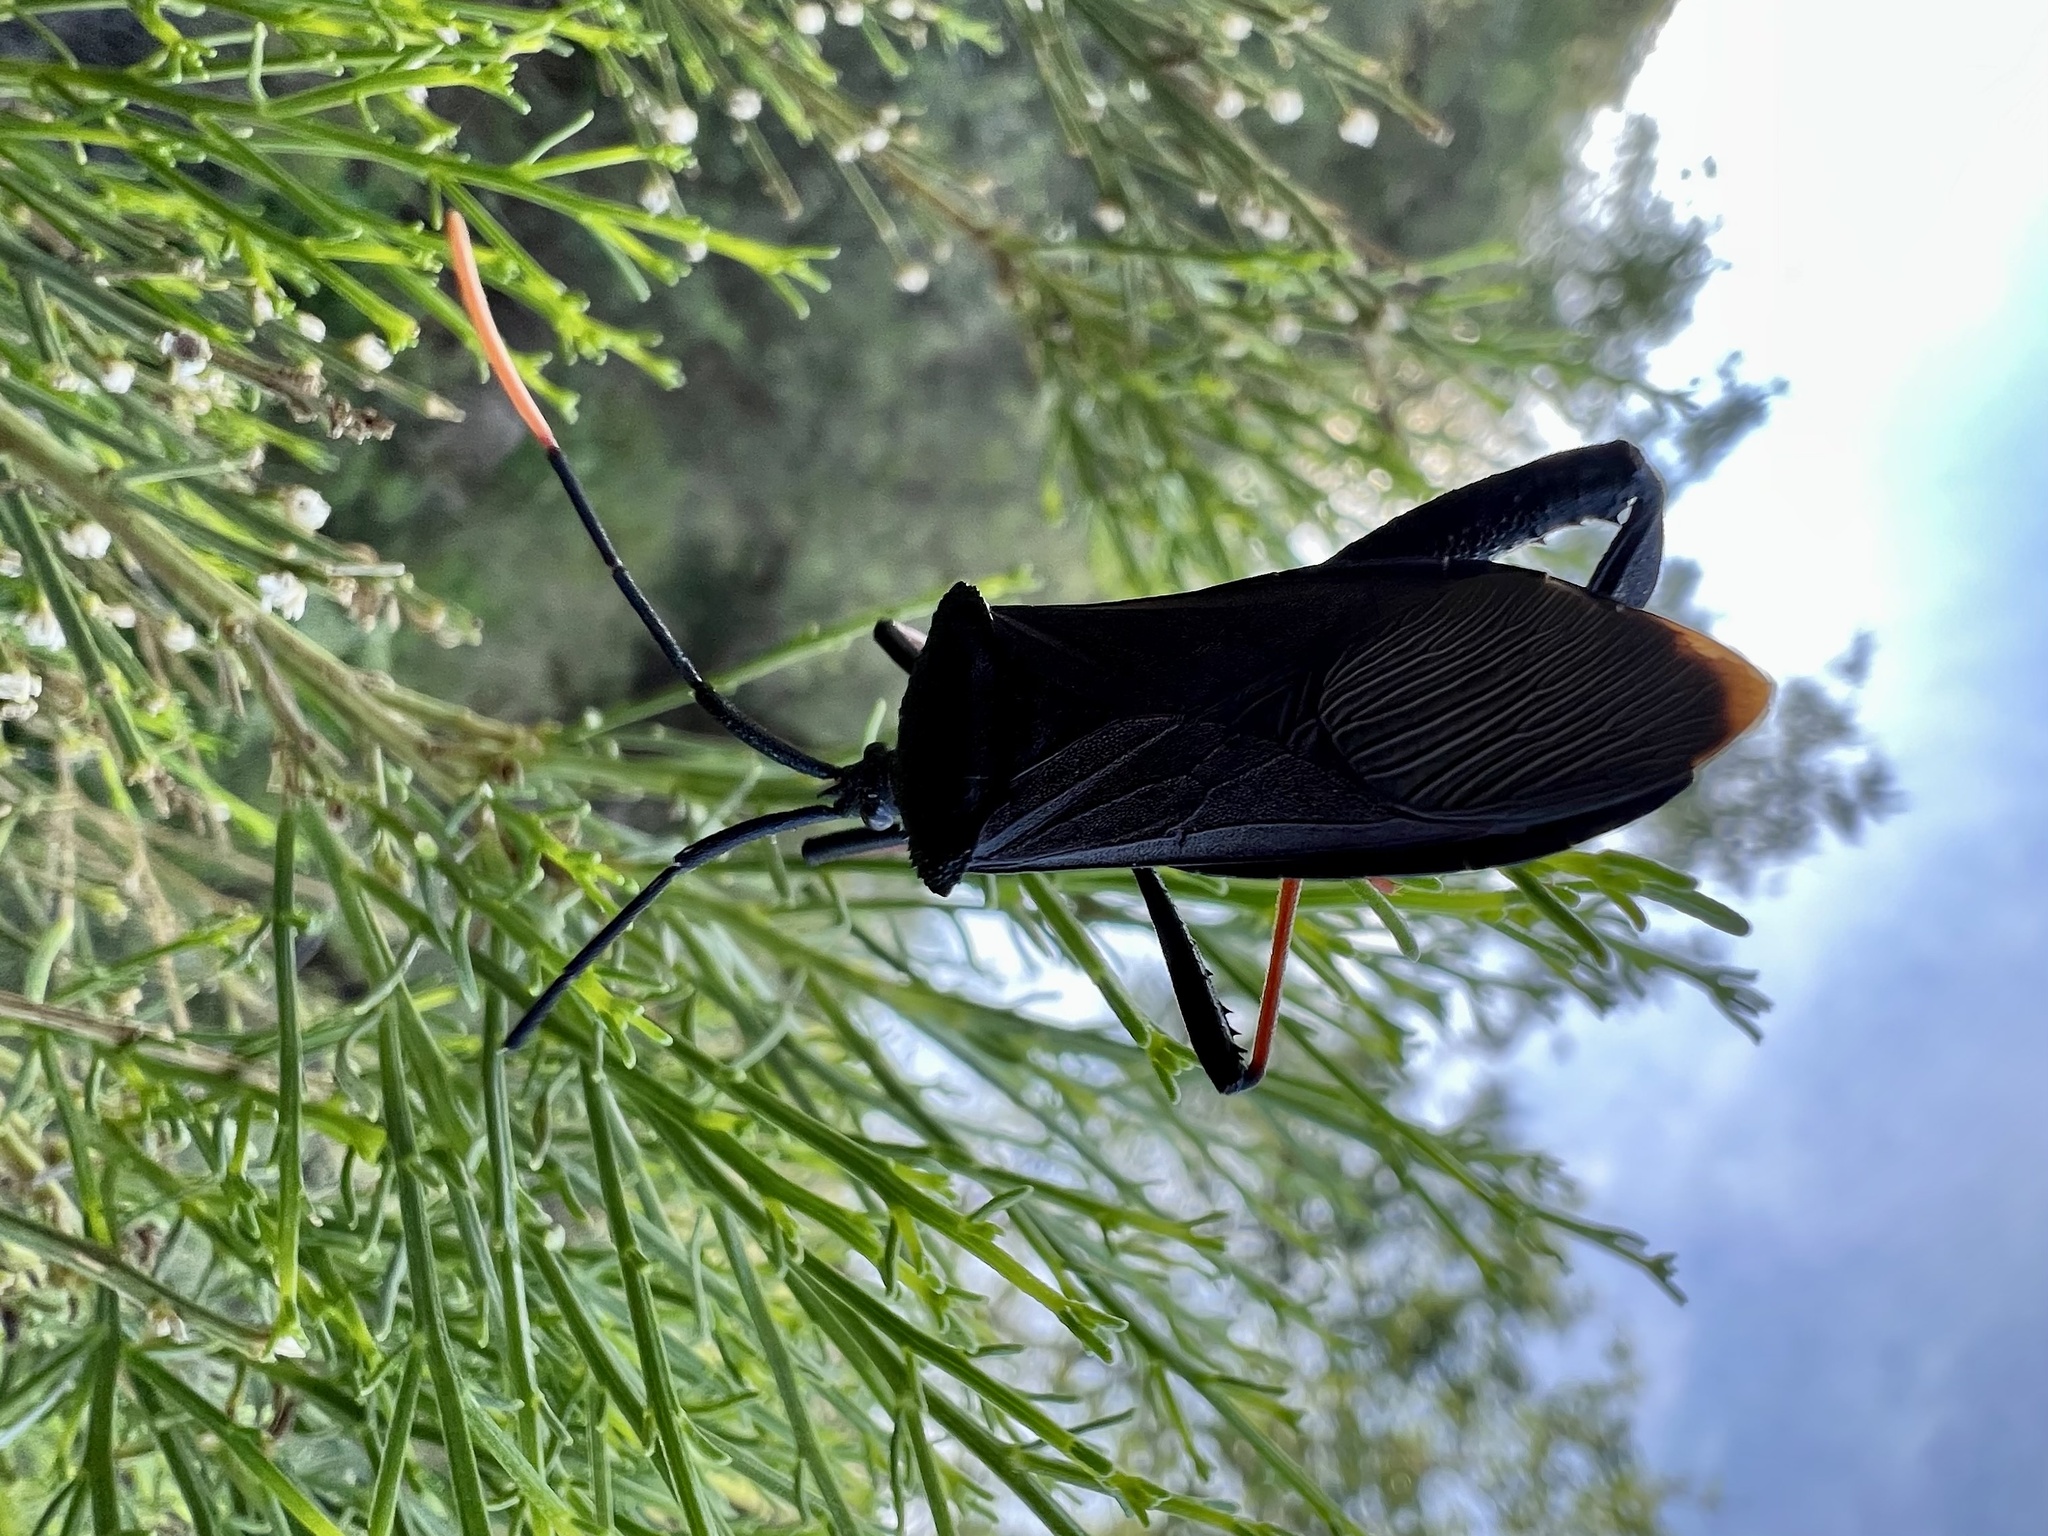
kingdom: Animalia
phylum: Arthropoda
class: Insecta
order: Hemiptera
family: Coreidae
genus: Acanthocephala
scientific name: Acanthocephala thomasi
